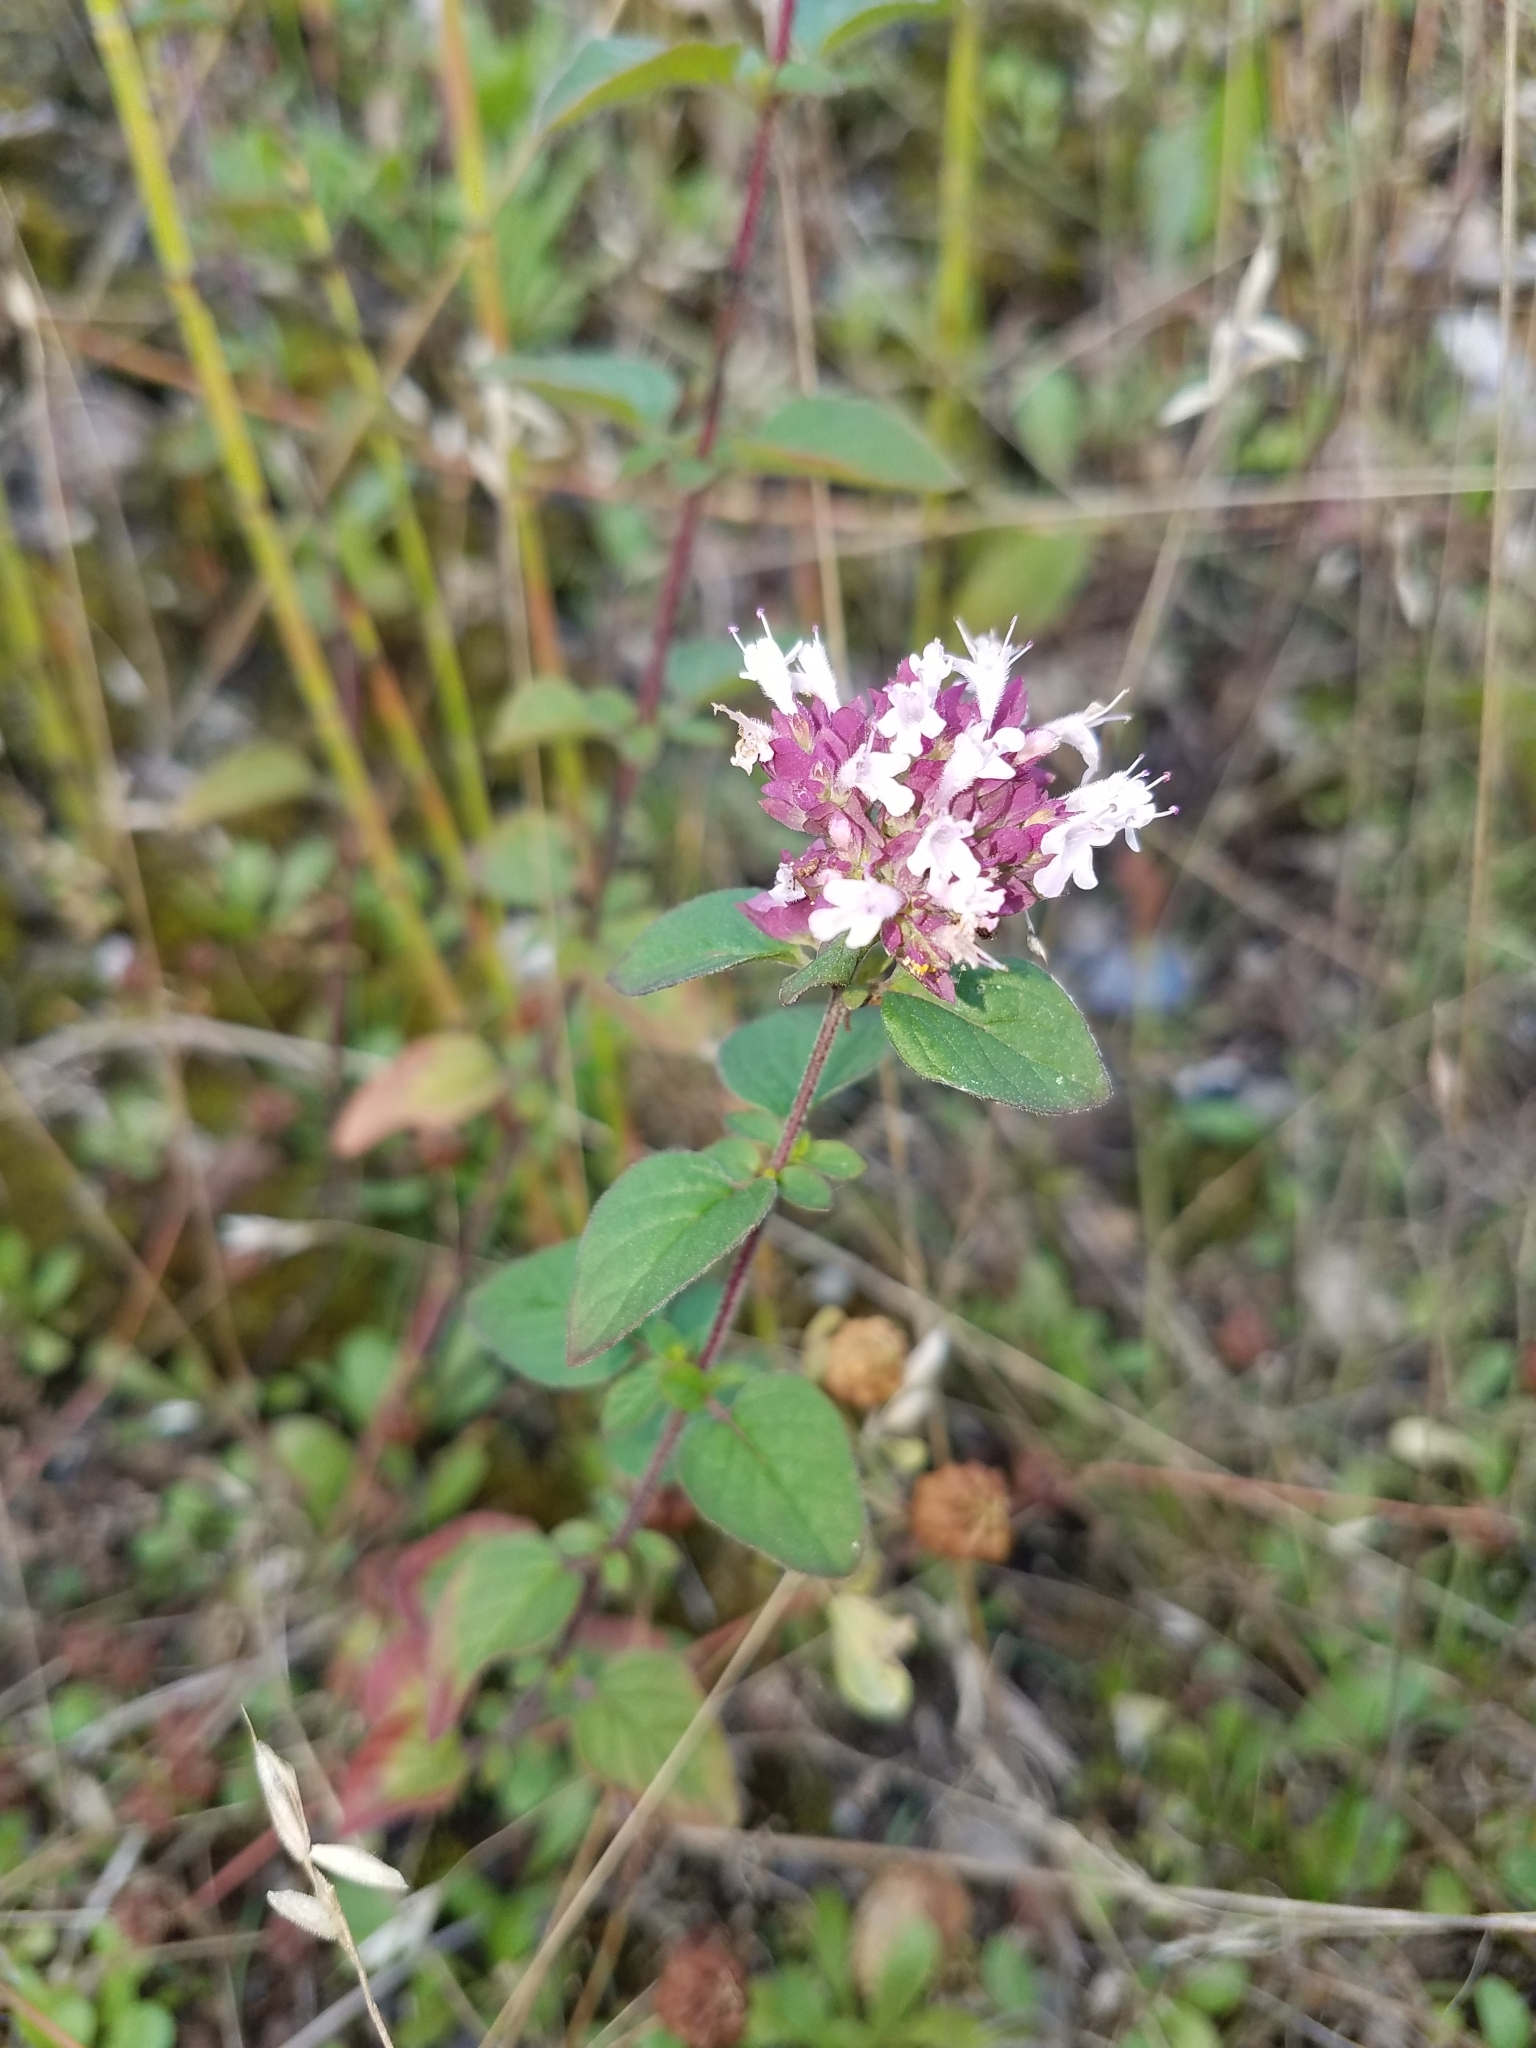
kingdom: Plantae
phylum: Tracheophyta
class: Magnoliopsida
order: Lamiales
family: Lamiaceae
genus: Origanum
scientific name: Origanum vulgare
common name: Wild marjoram
